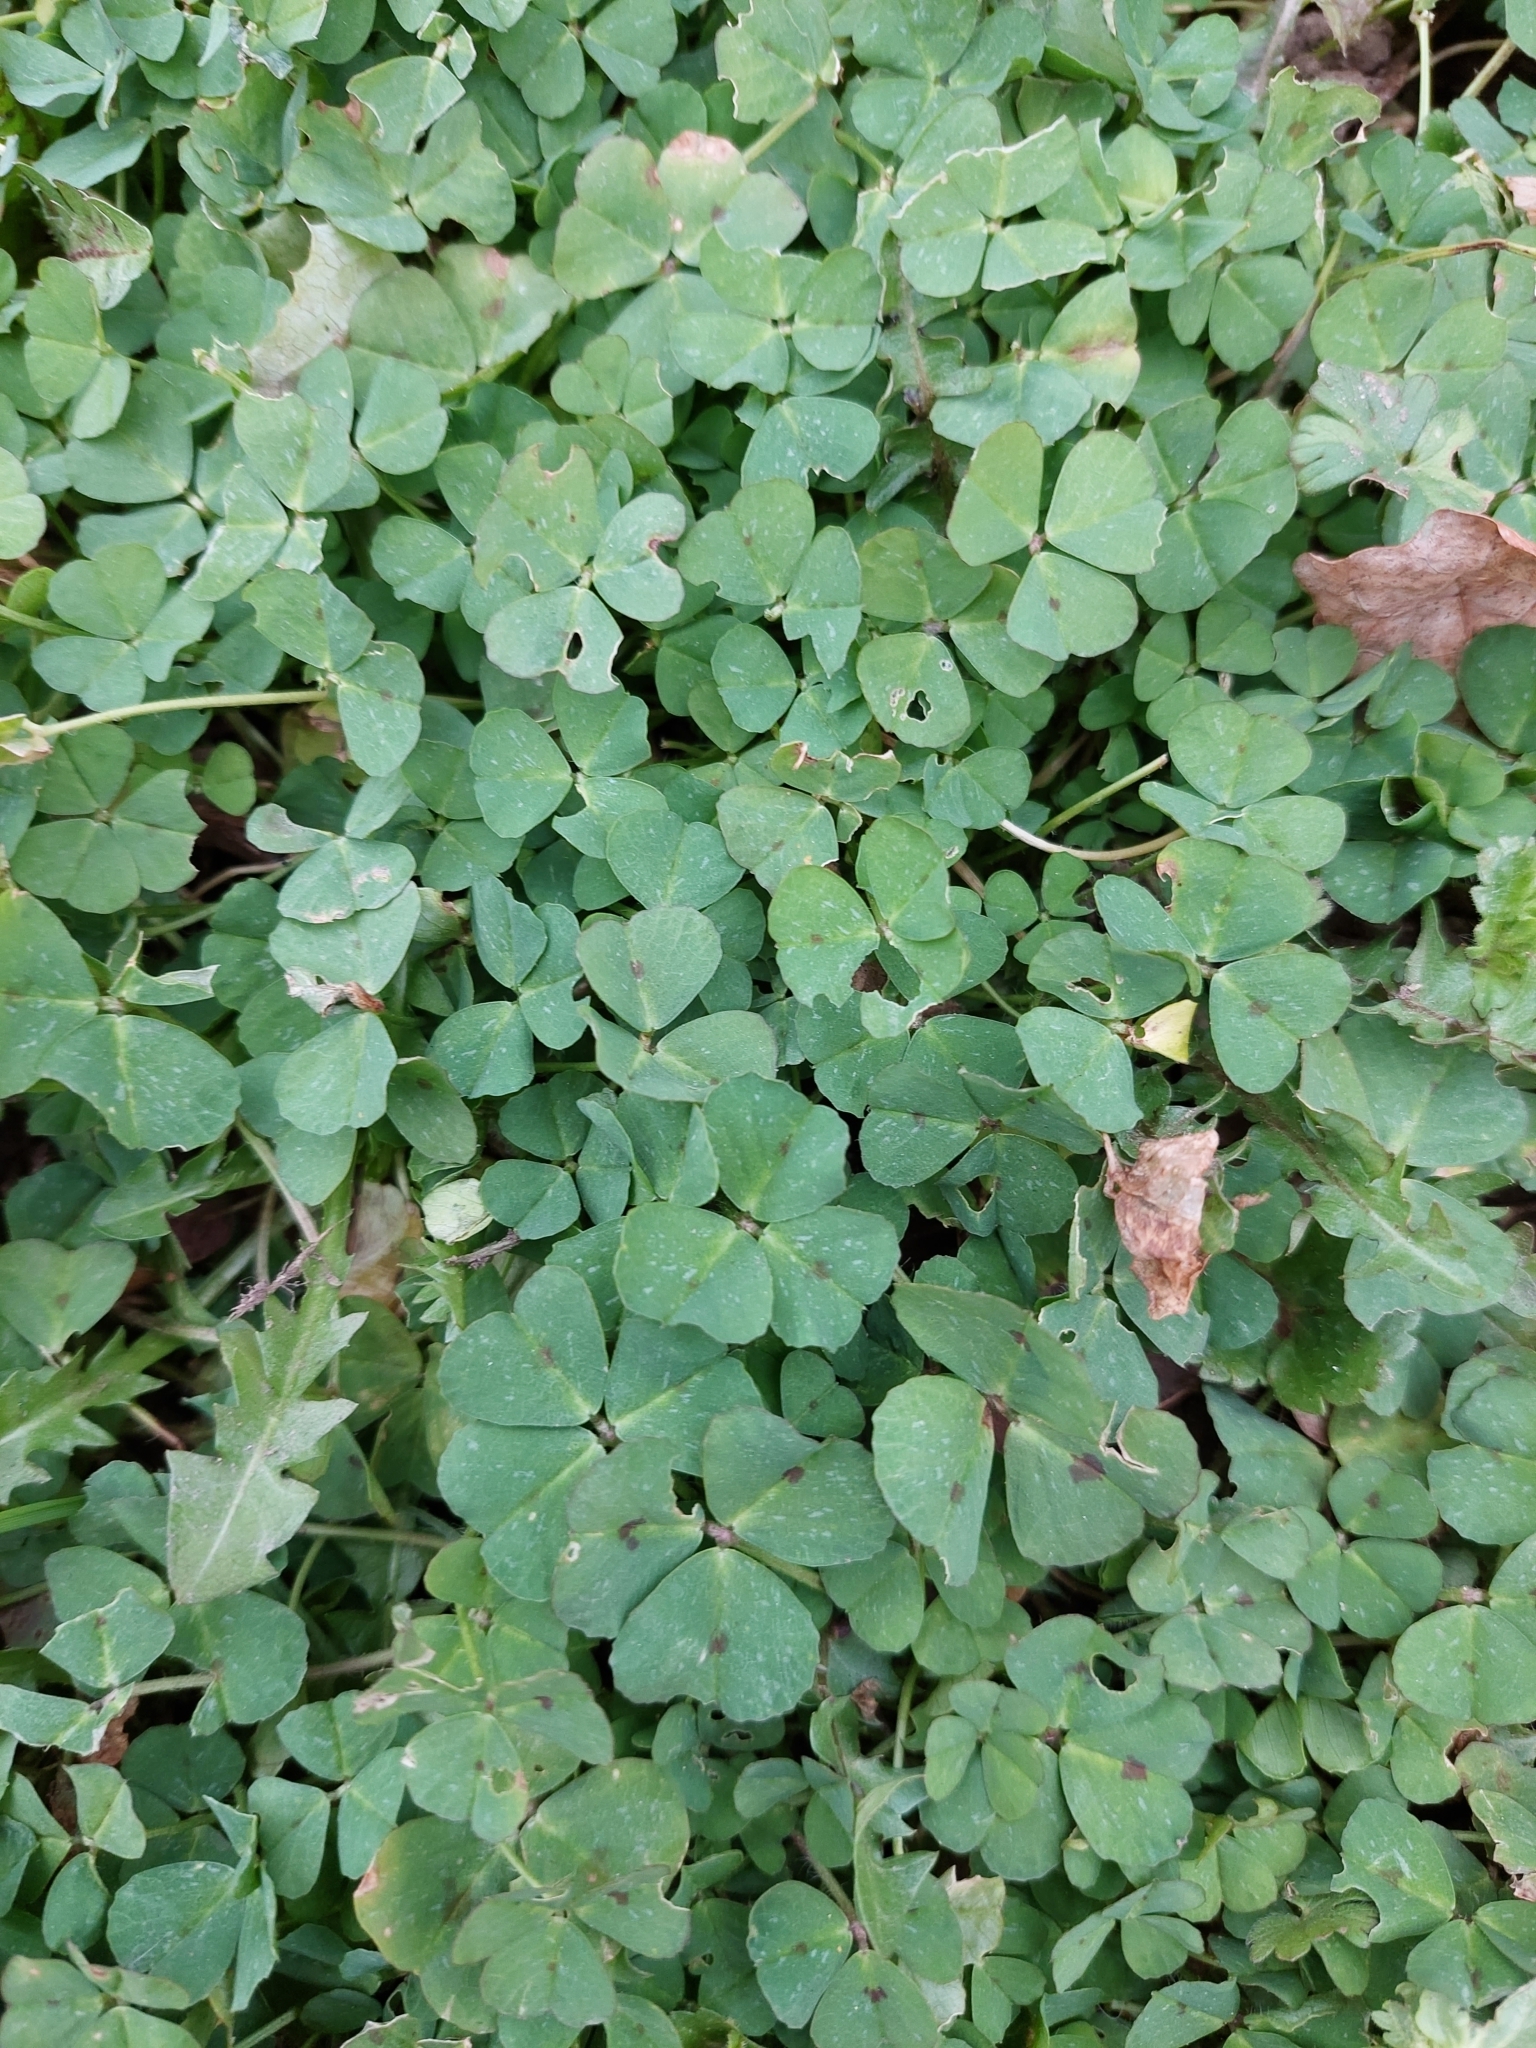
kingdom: Plantae
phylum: Tracheophyta
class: Magnoliopsida
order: Fabales
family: Fabaceae
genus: Medicago
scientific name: Medicago arabica
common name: Spotted medick
